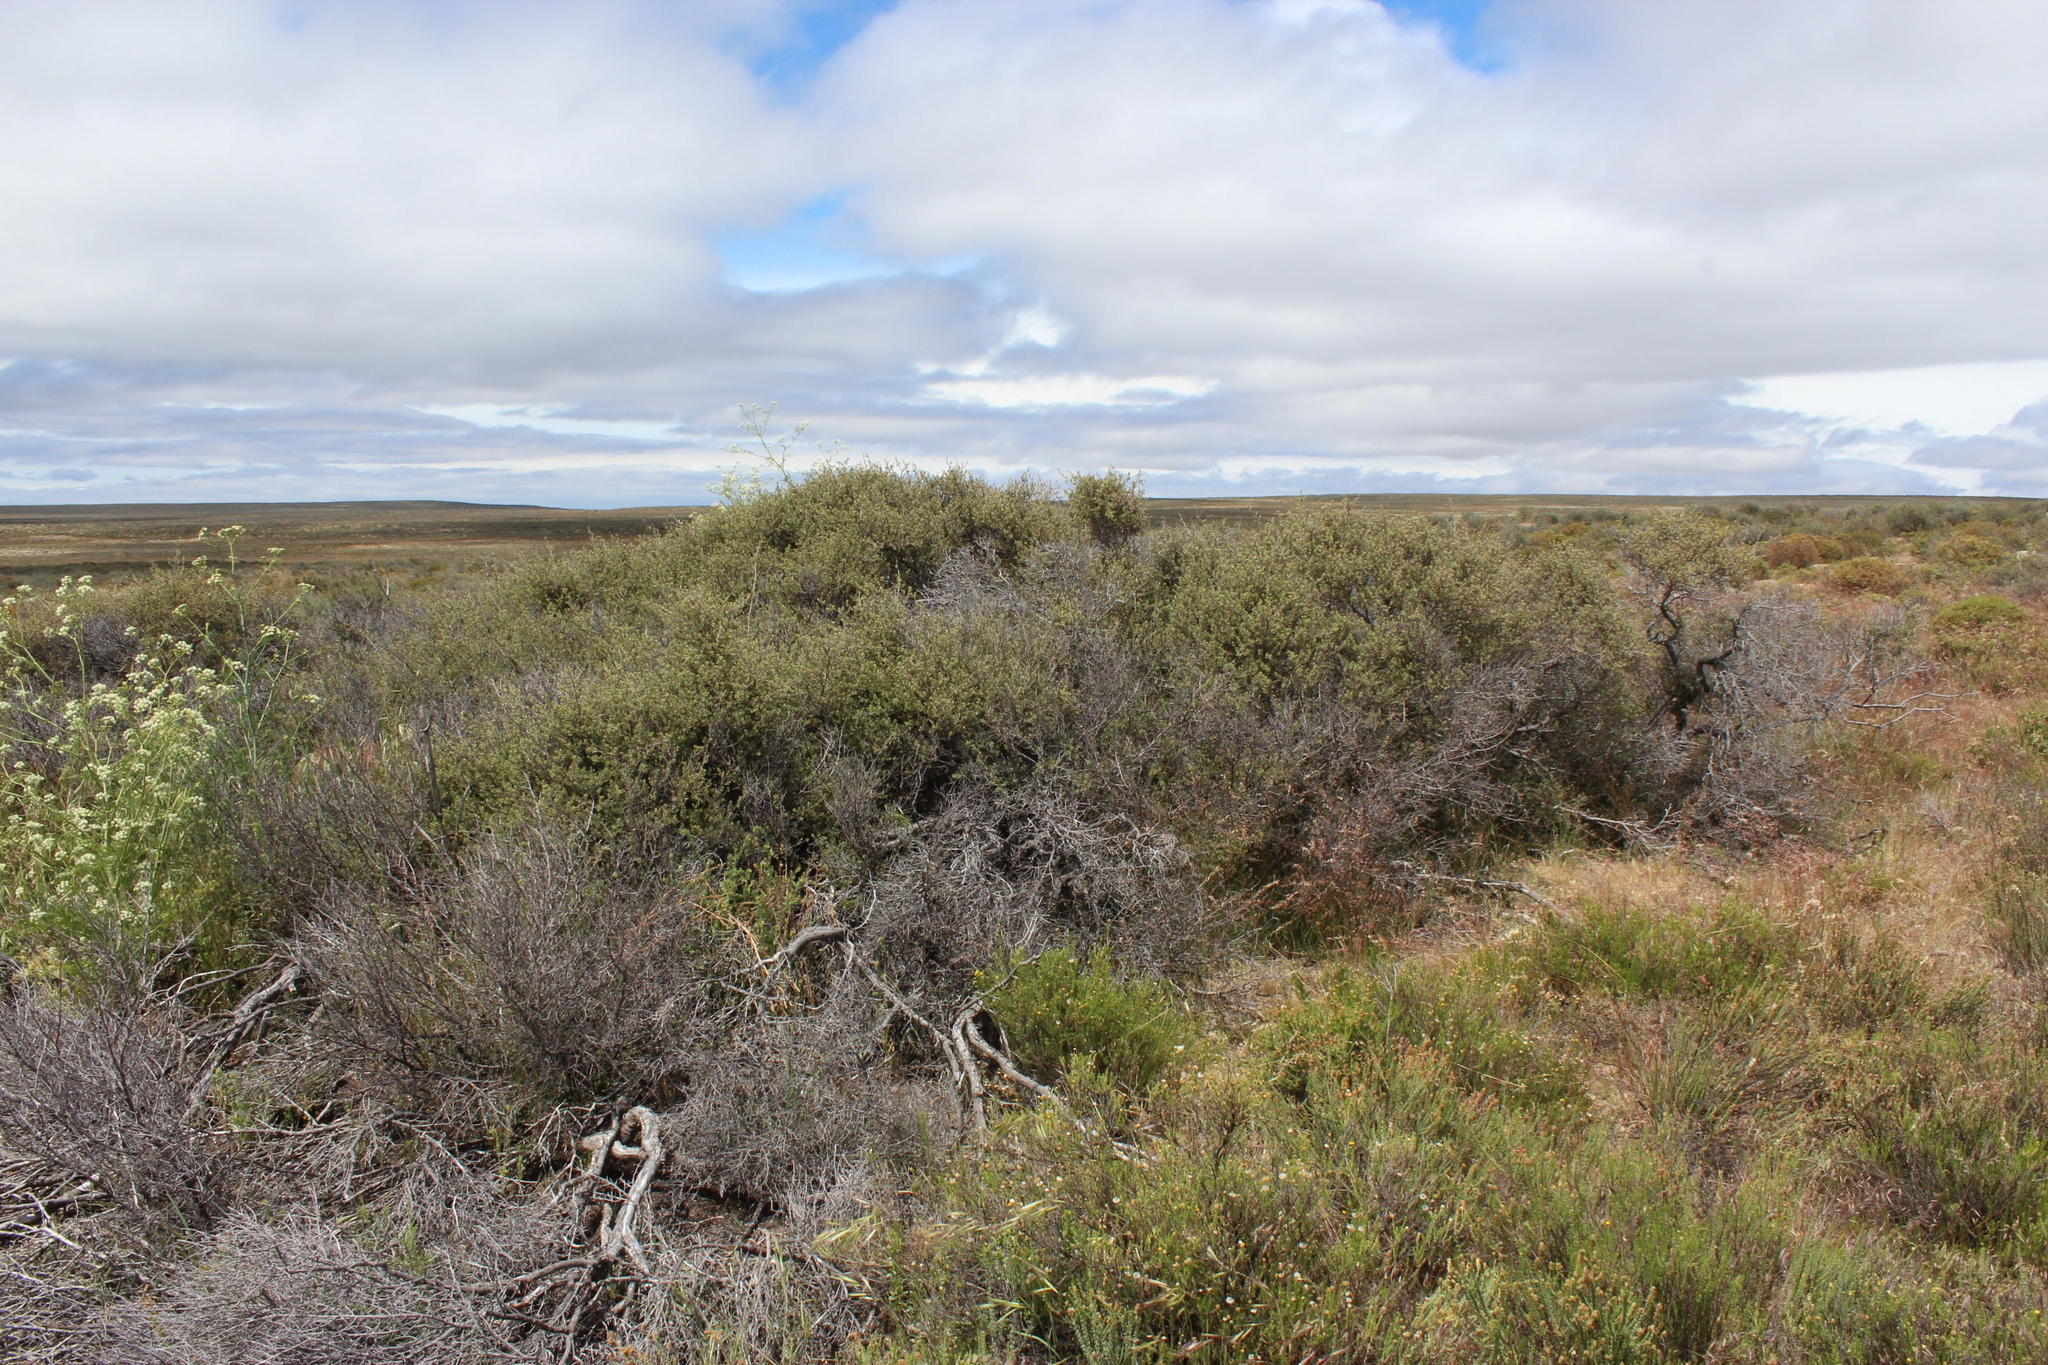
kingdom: Plantae
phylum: Tracheophyta
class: Magnoliopsida
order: Ericales
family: Ebenaceae
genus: Diospyros
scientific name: Diospyros pubescens
